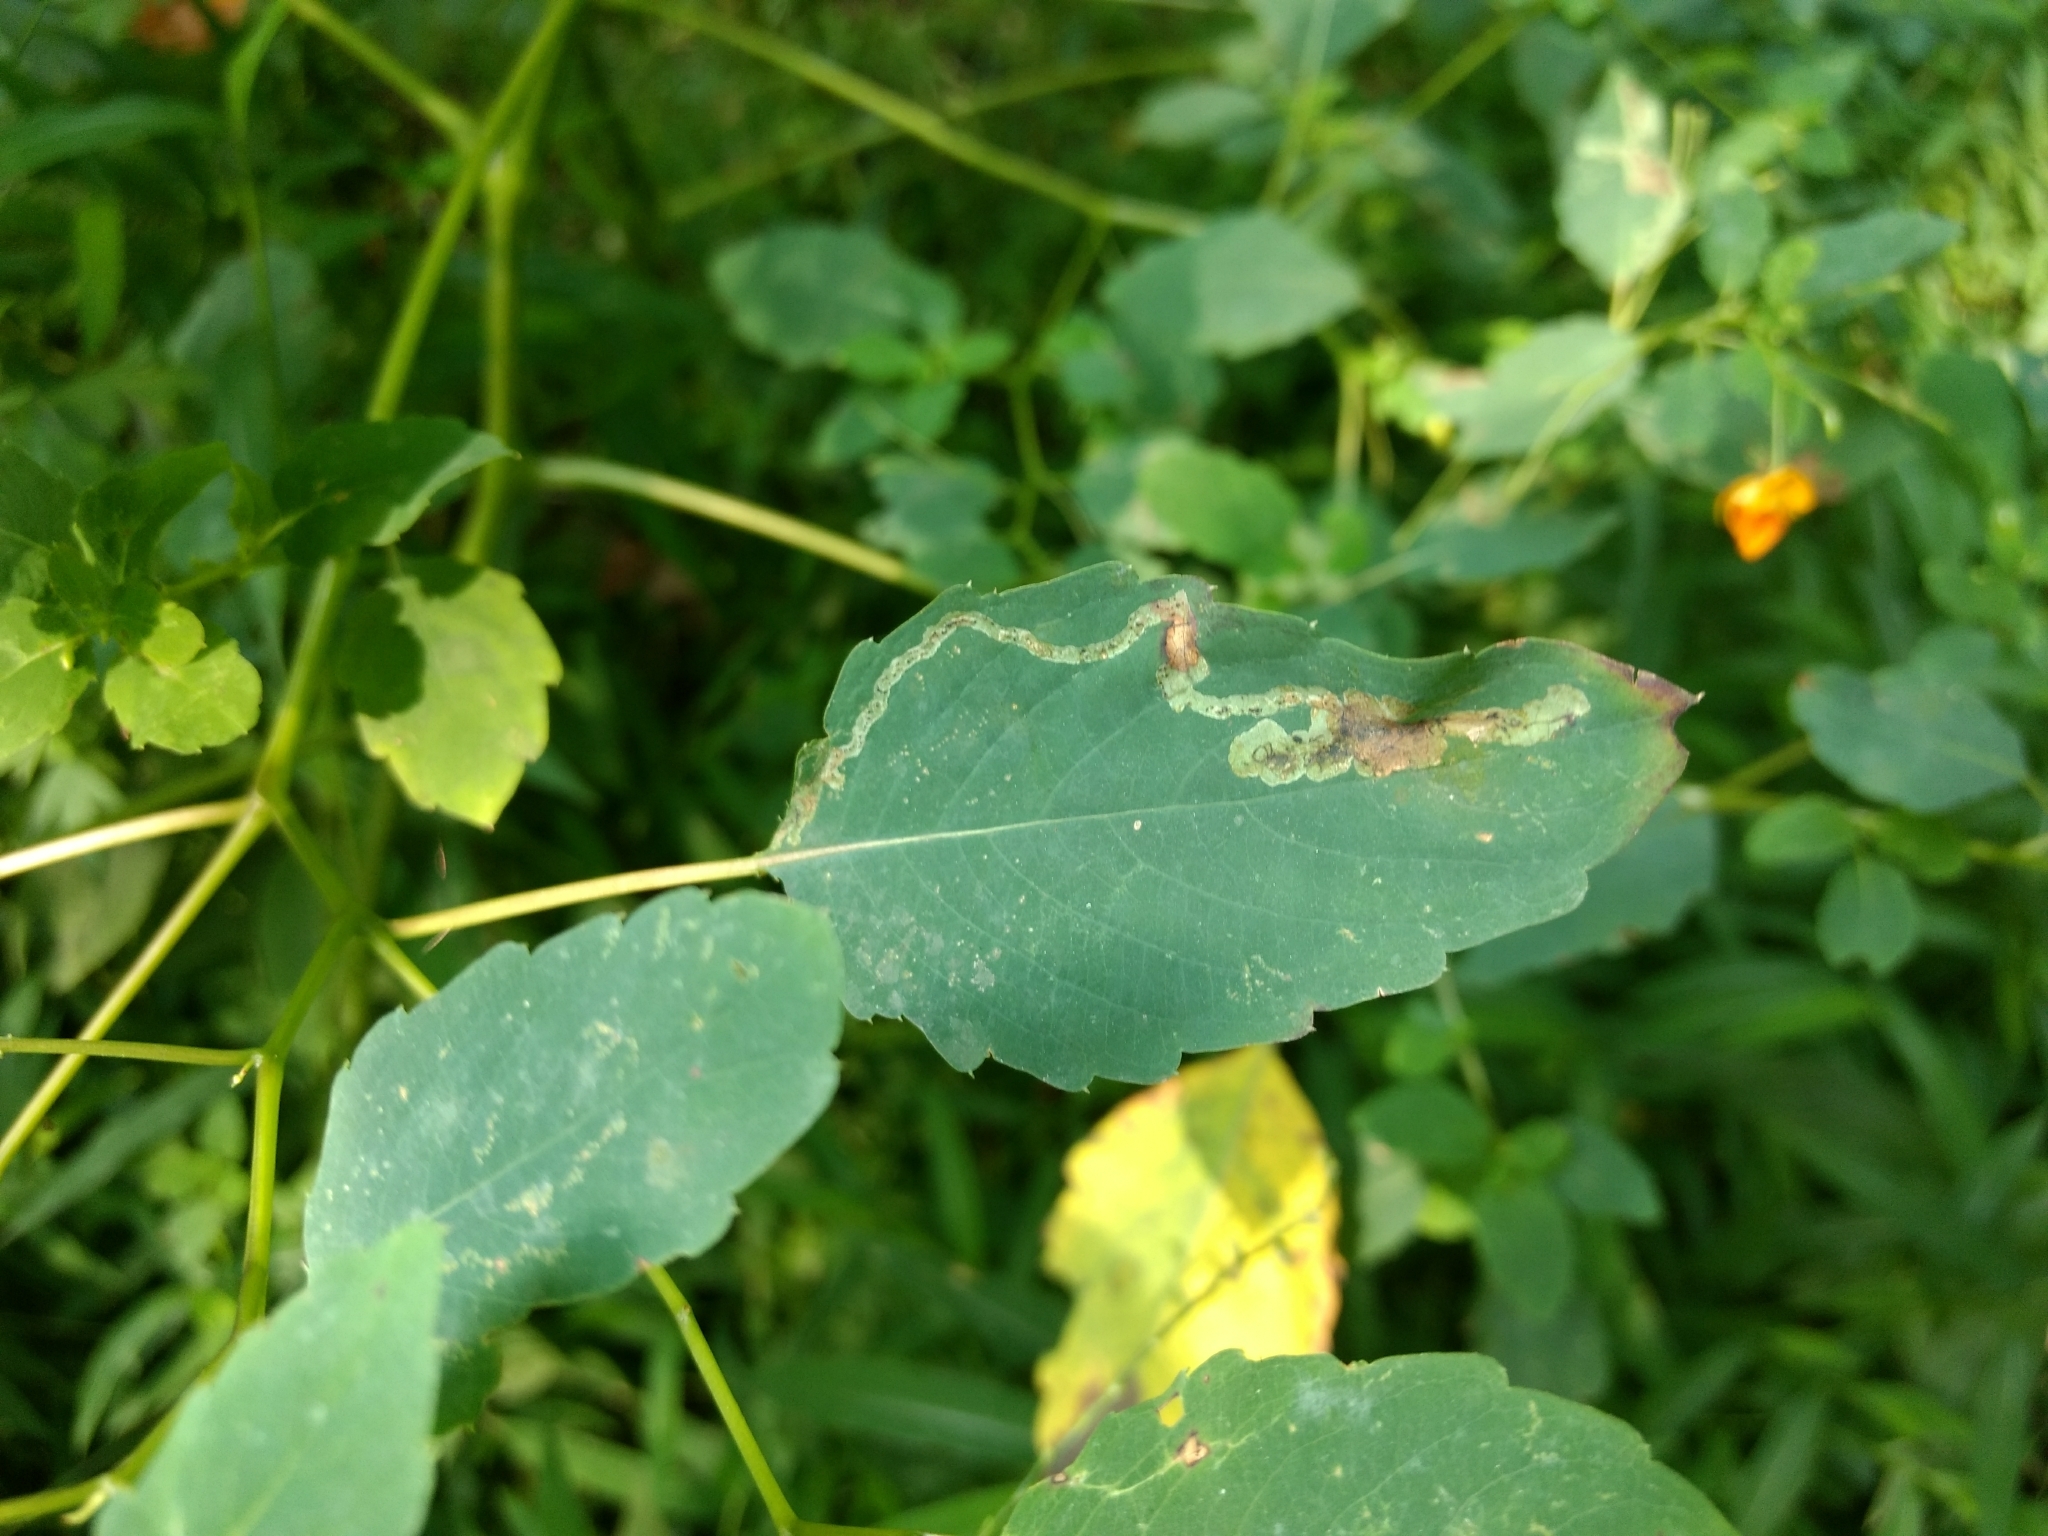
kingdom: Animalia
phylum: Arthropoda
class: Insecta
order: Diptera
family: Agromyzidae
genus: Phytoliriomyza
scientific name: Phytoliriomyza melampyga
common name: Jewelweed leaf-miner fly
